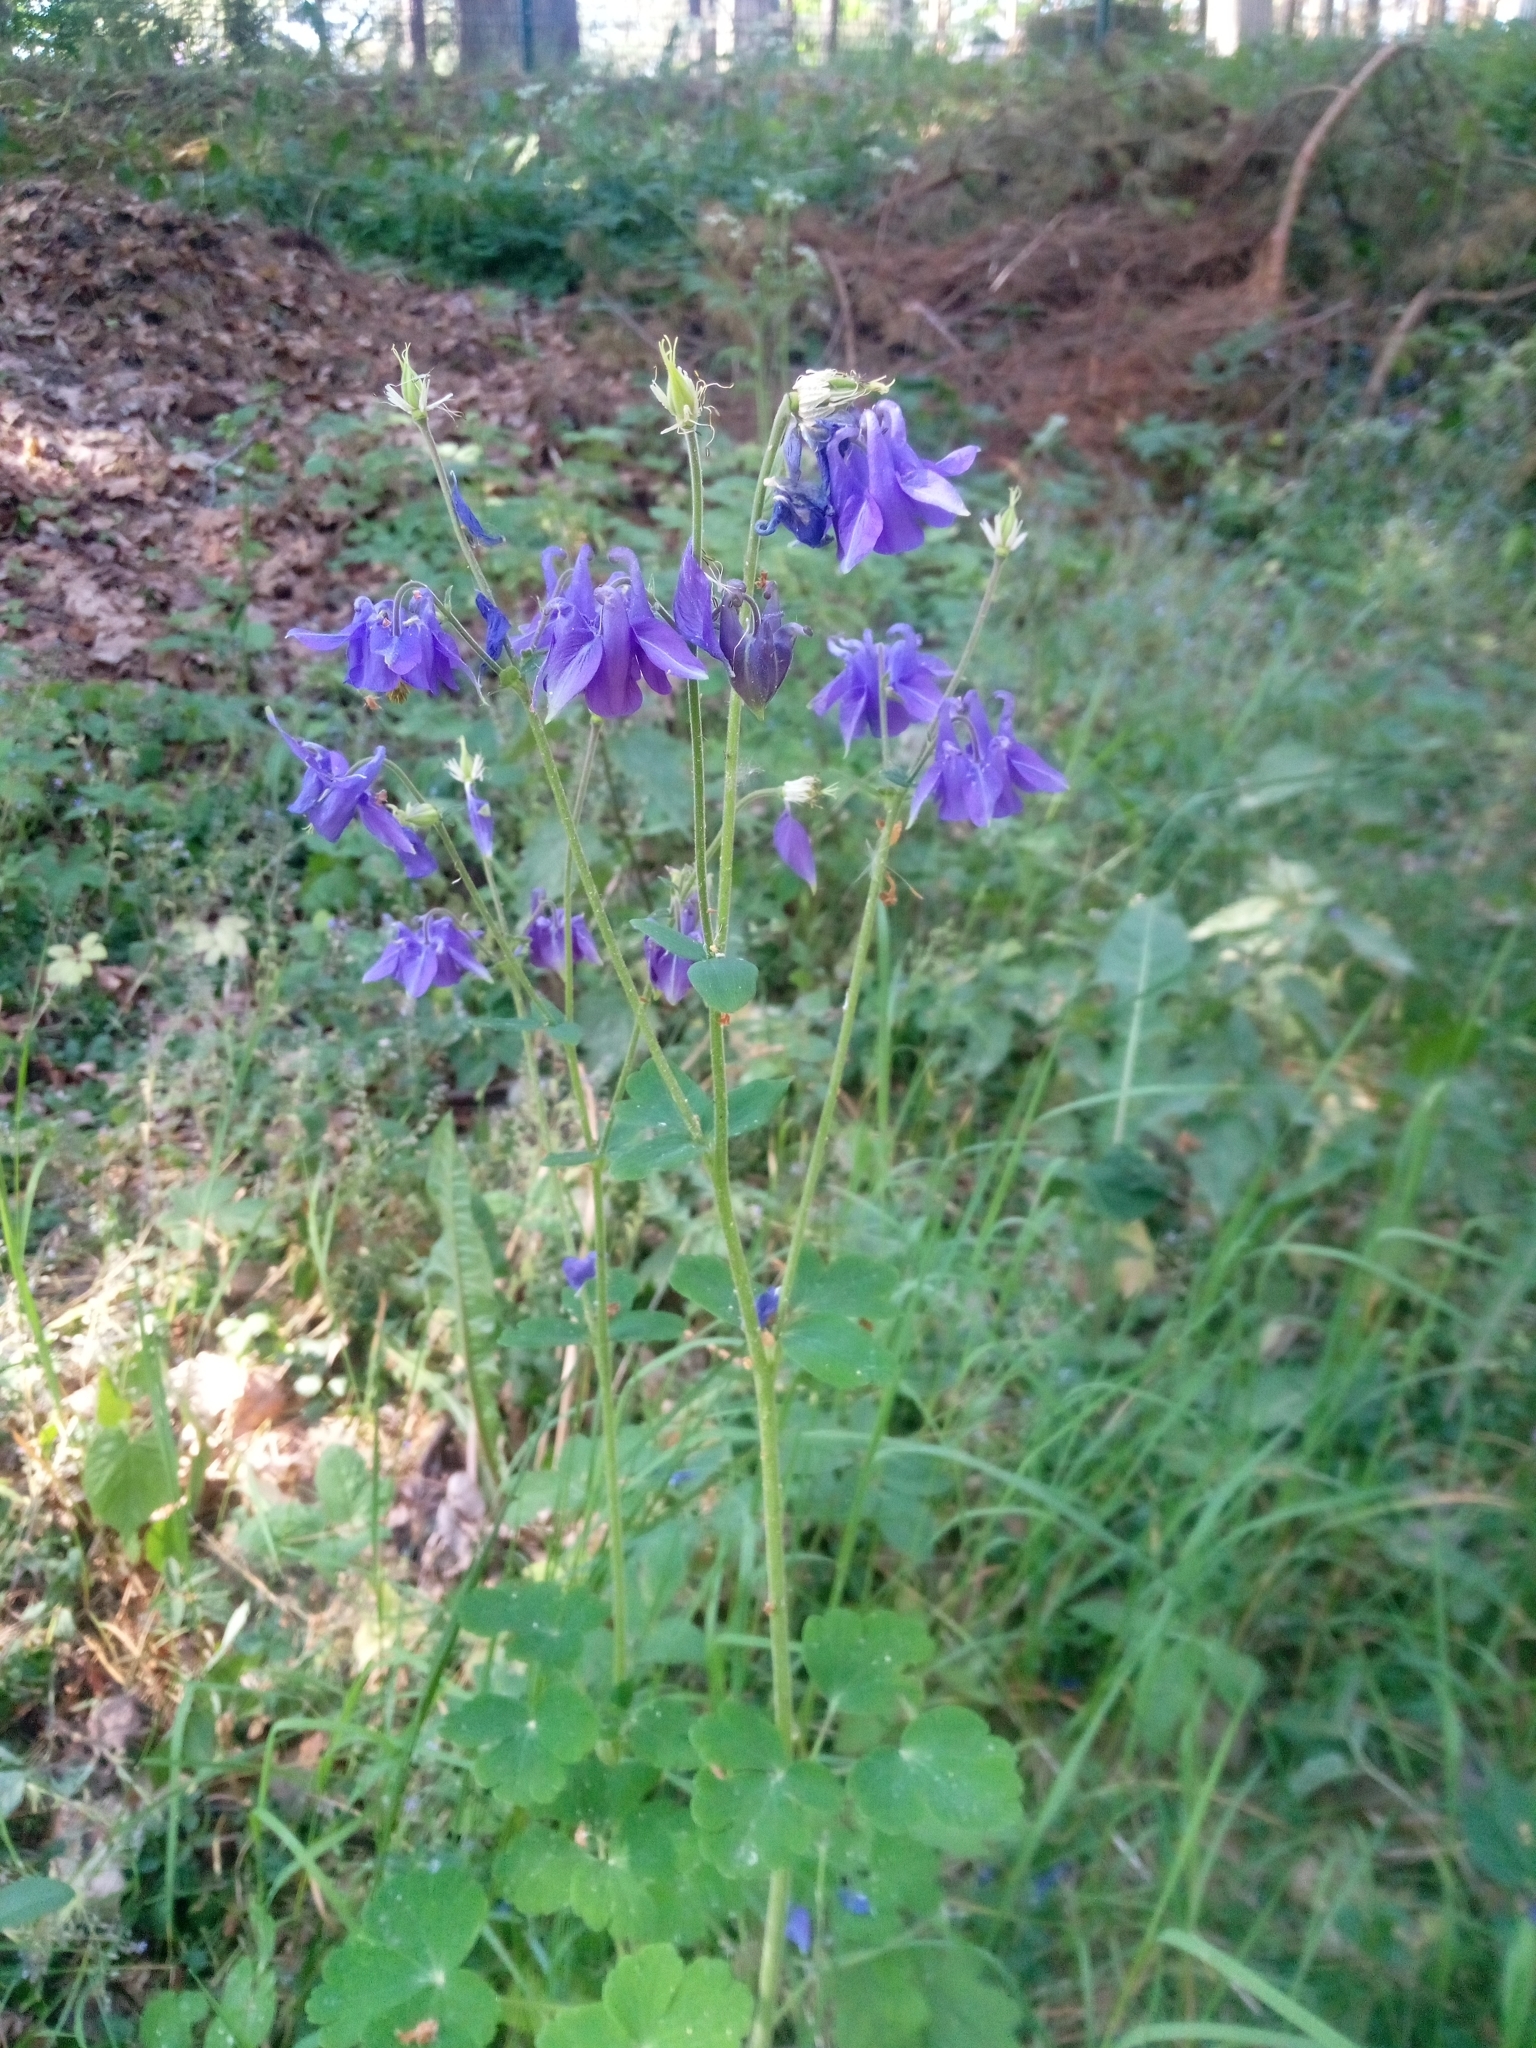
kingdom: Plantae
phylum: Tracheophyta
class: Magnoliopsida
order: Ranunculales
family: Ranunculaceae
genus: Aquilegia
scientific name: Aquilegia vulgaris
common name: Columbine
